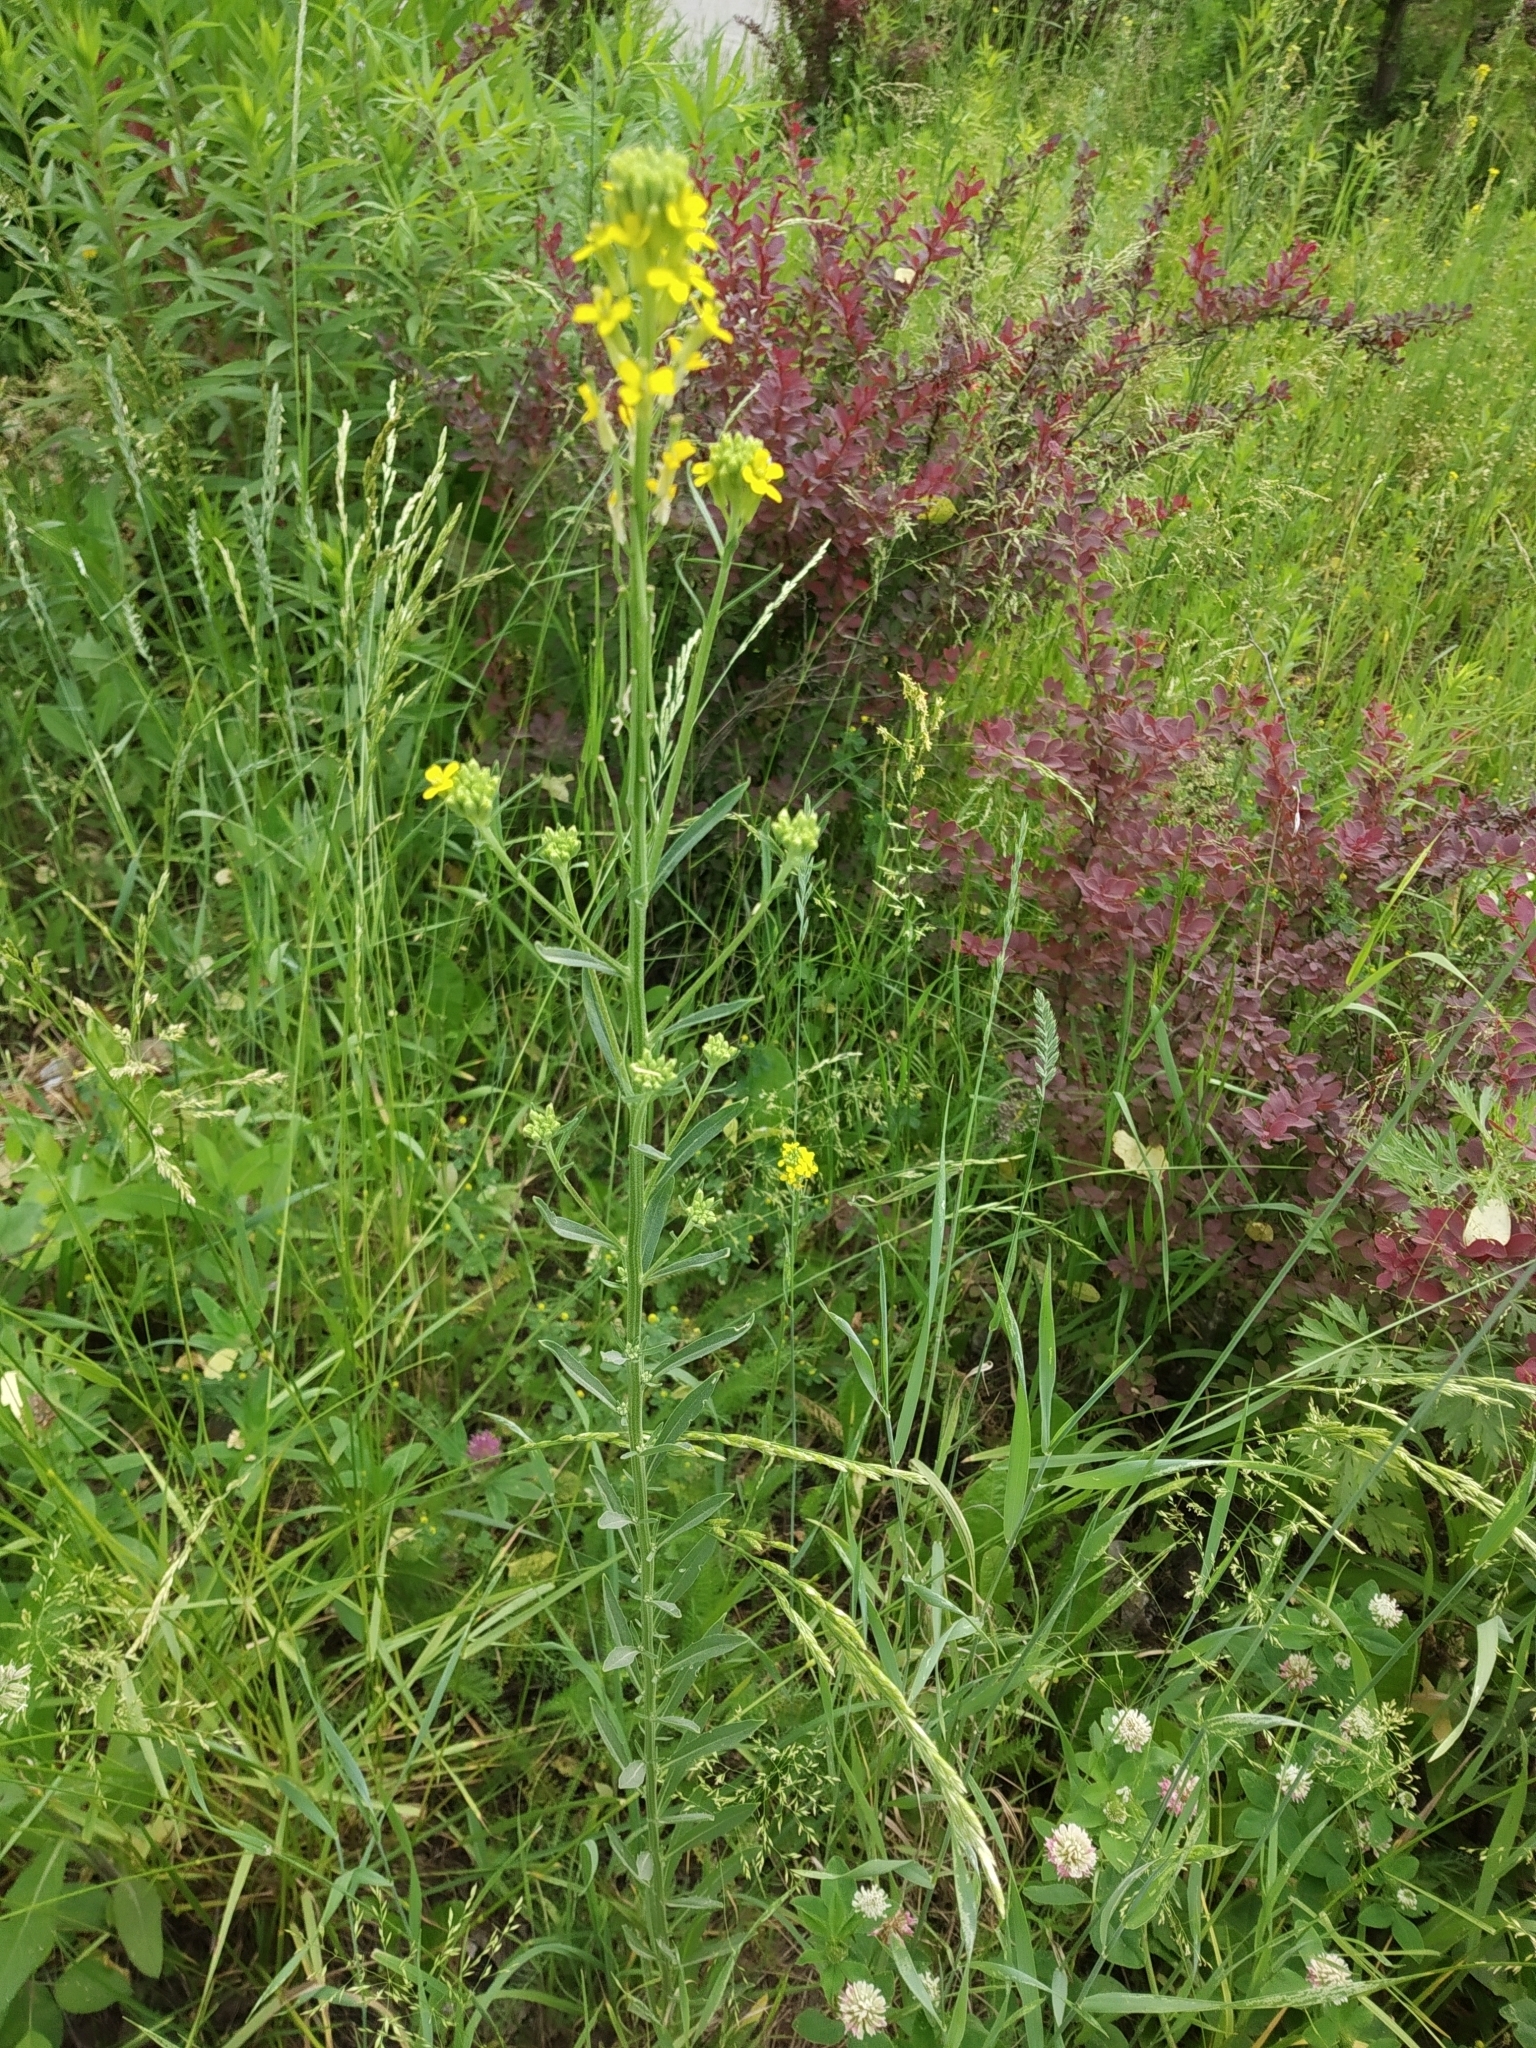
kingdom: Plantae
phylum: Tracheophyta
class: Magnoliopsida
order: Brassicales
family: Brassicaceae
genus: Erysimum
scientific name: Erysimum cheiranthoides
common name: Treacle mustard
